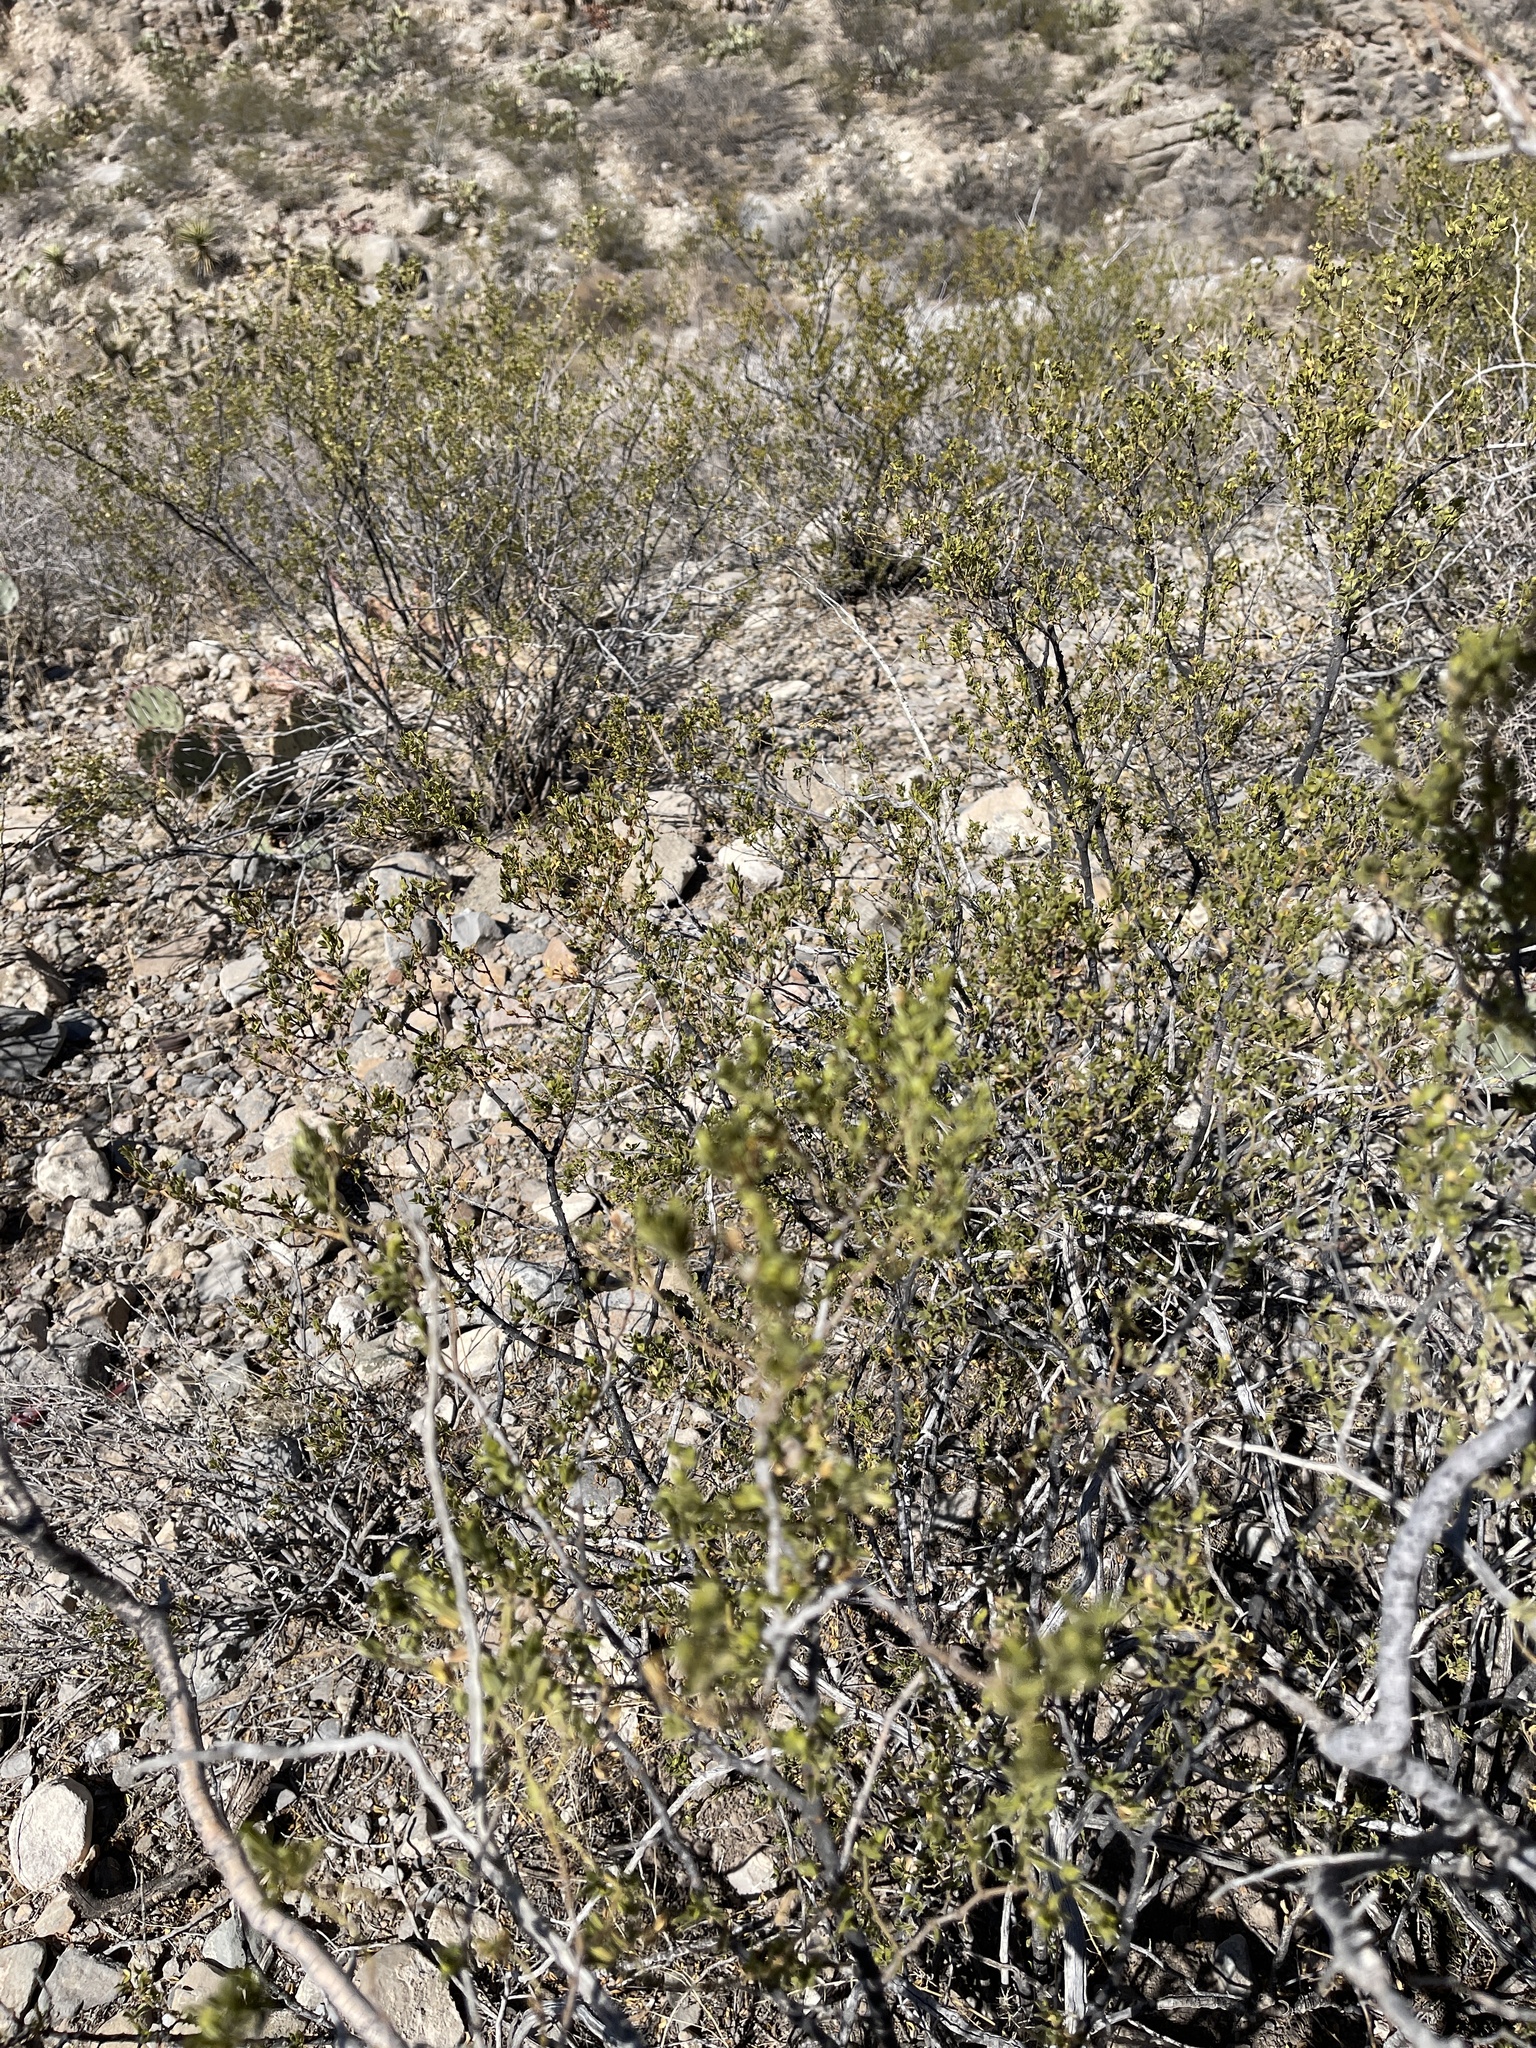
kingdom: Plantae
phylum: Tracheophyta
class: Magnoliopsida
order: Zygophyllales
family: Zygophyllaceae
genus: Larrea
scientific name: Larrea tridentata
